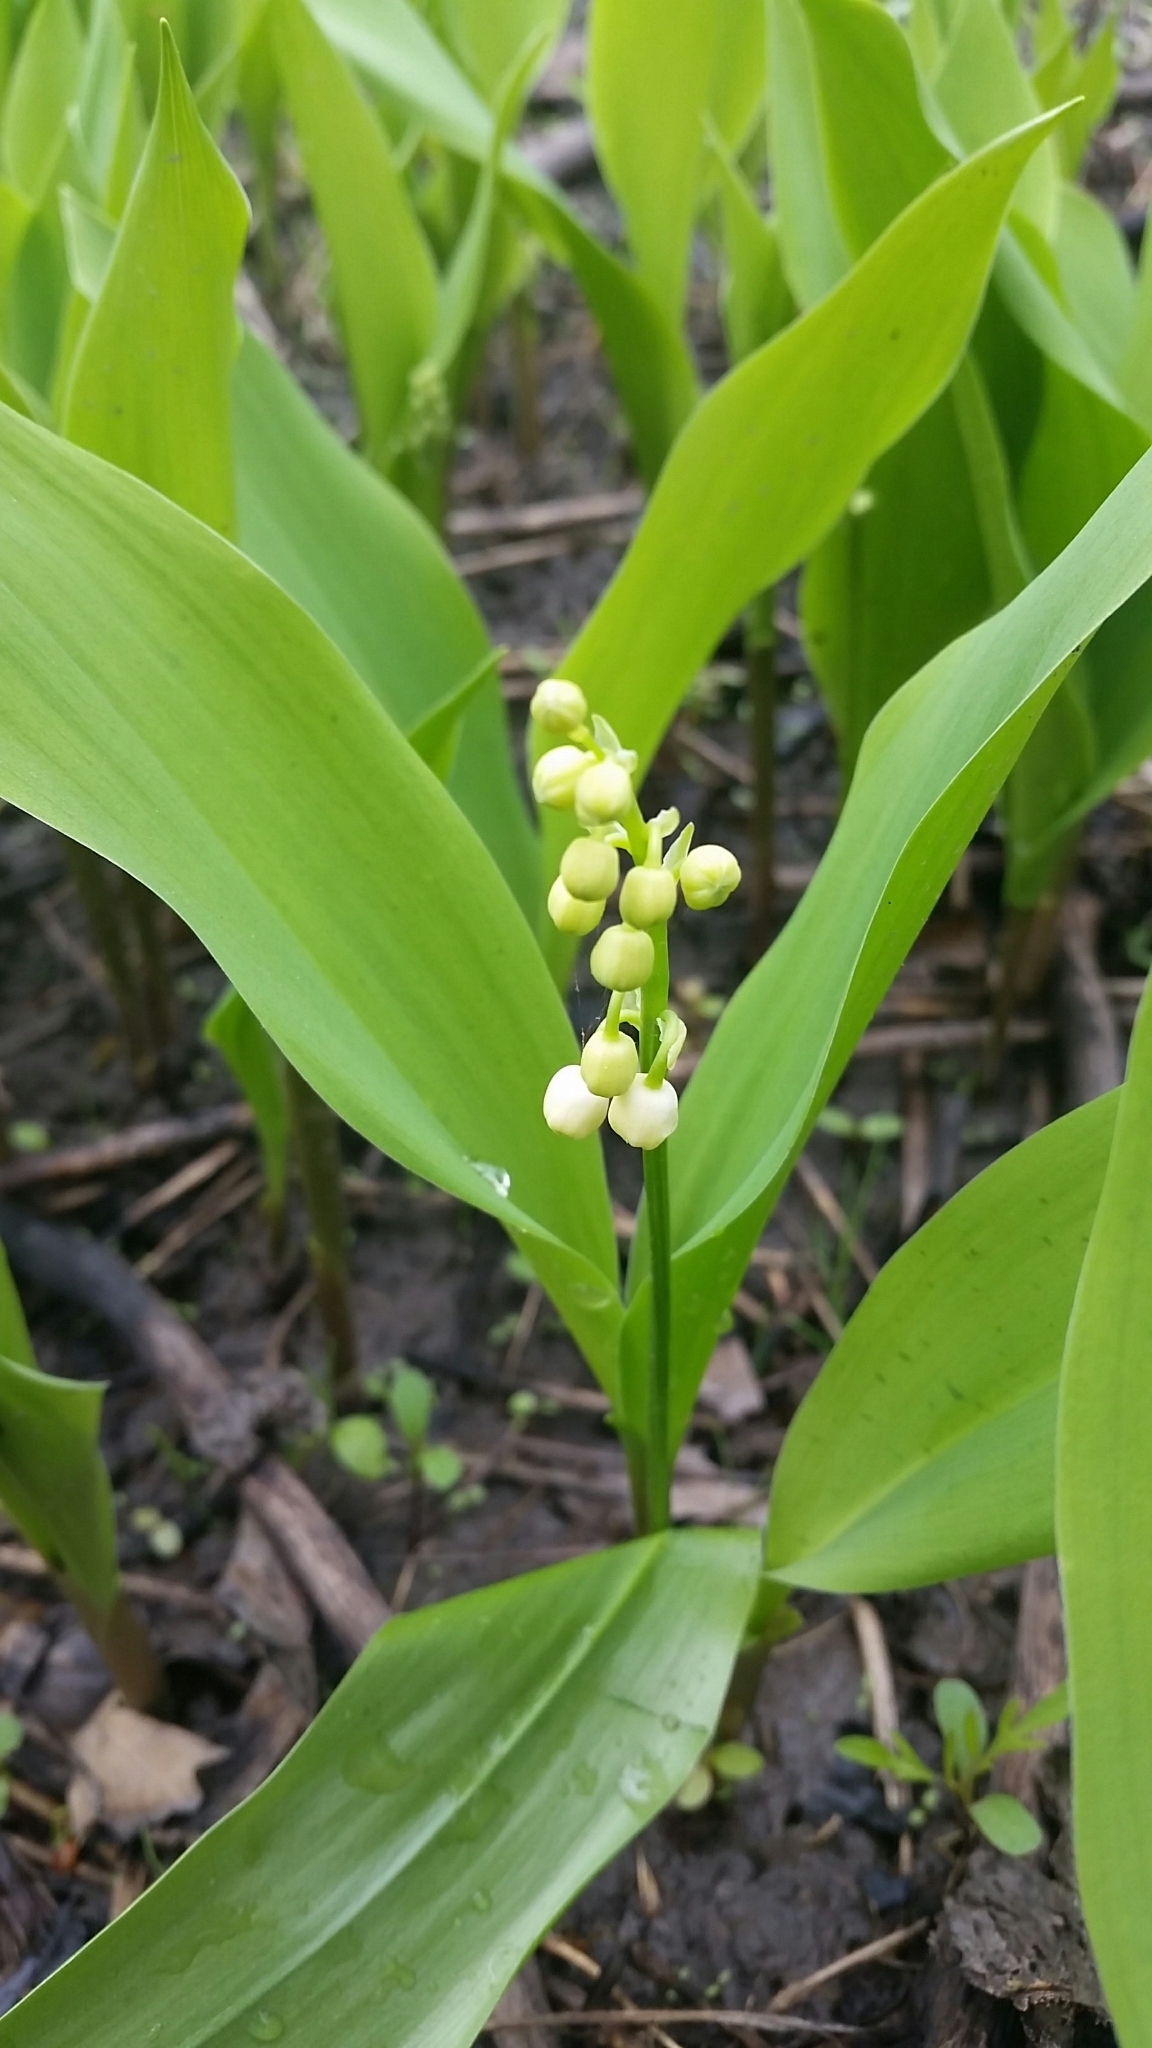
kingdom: Plantae
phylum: Tracheophyta
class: Liliopsida
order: Asparagales
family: Asparagaceae
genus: Convallaria
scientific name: Convallaria majalis
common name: Lily-of-the-valley
